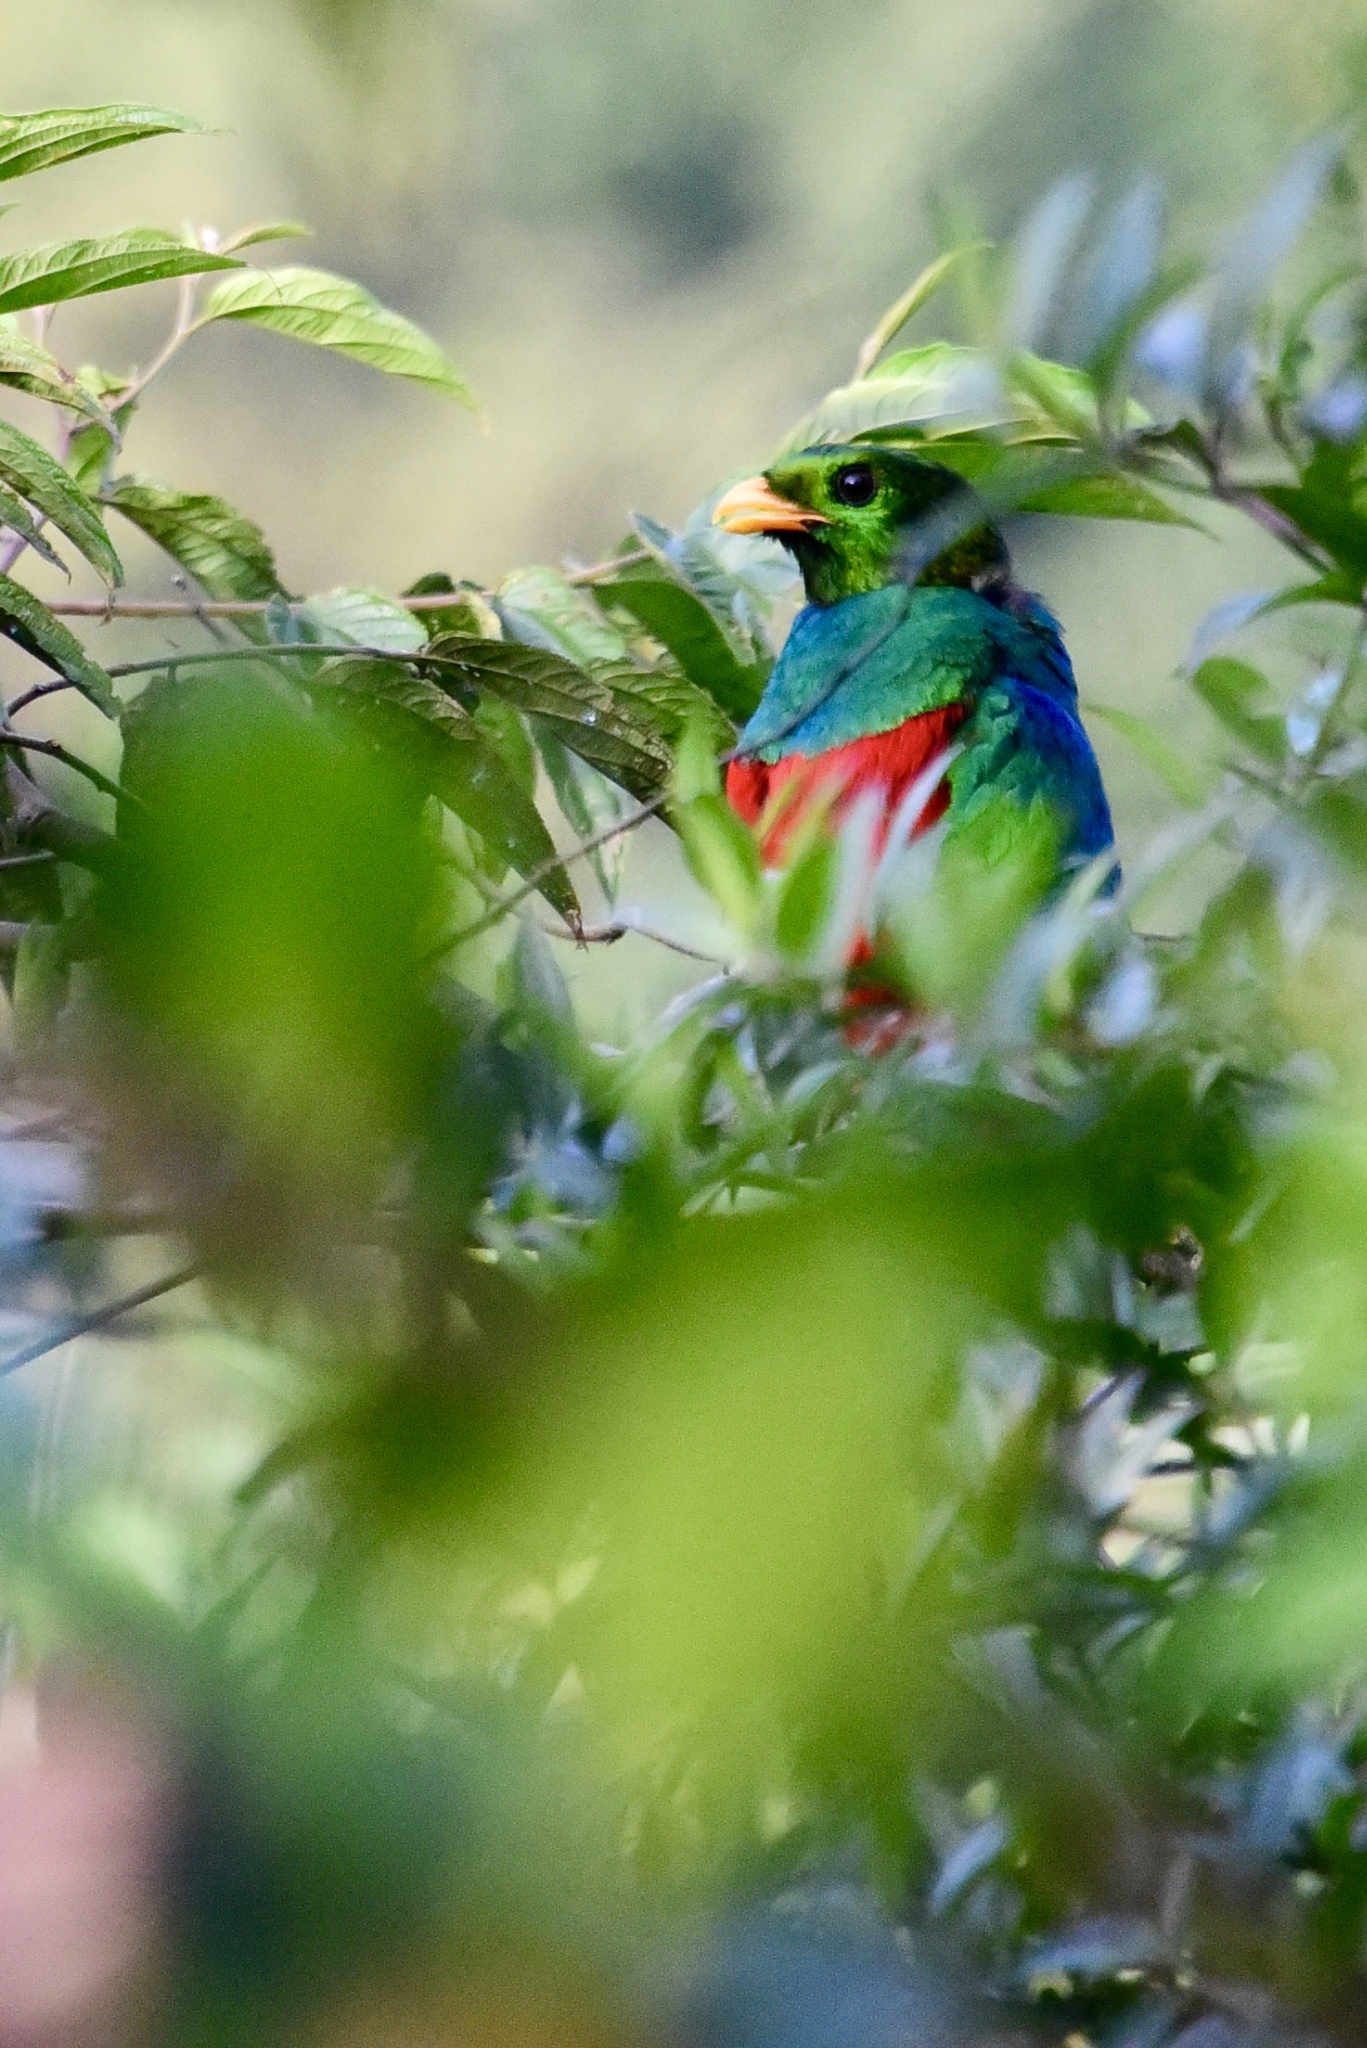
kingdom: Animalia
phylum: Chordata
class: Aves
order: Trogoniformes
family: Trogonidae
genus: Pharomachrus
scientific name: Pharomachrus auriceps
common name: Golden-headed quetzal
